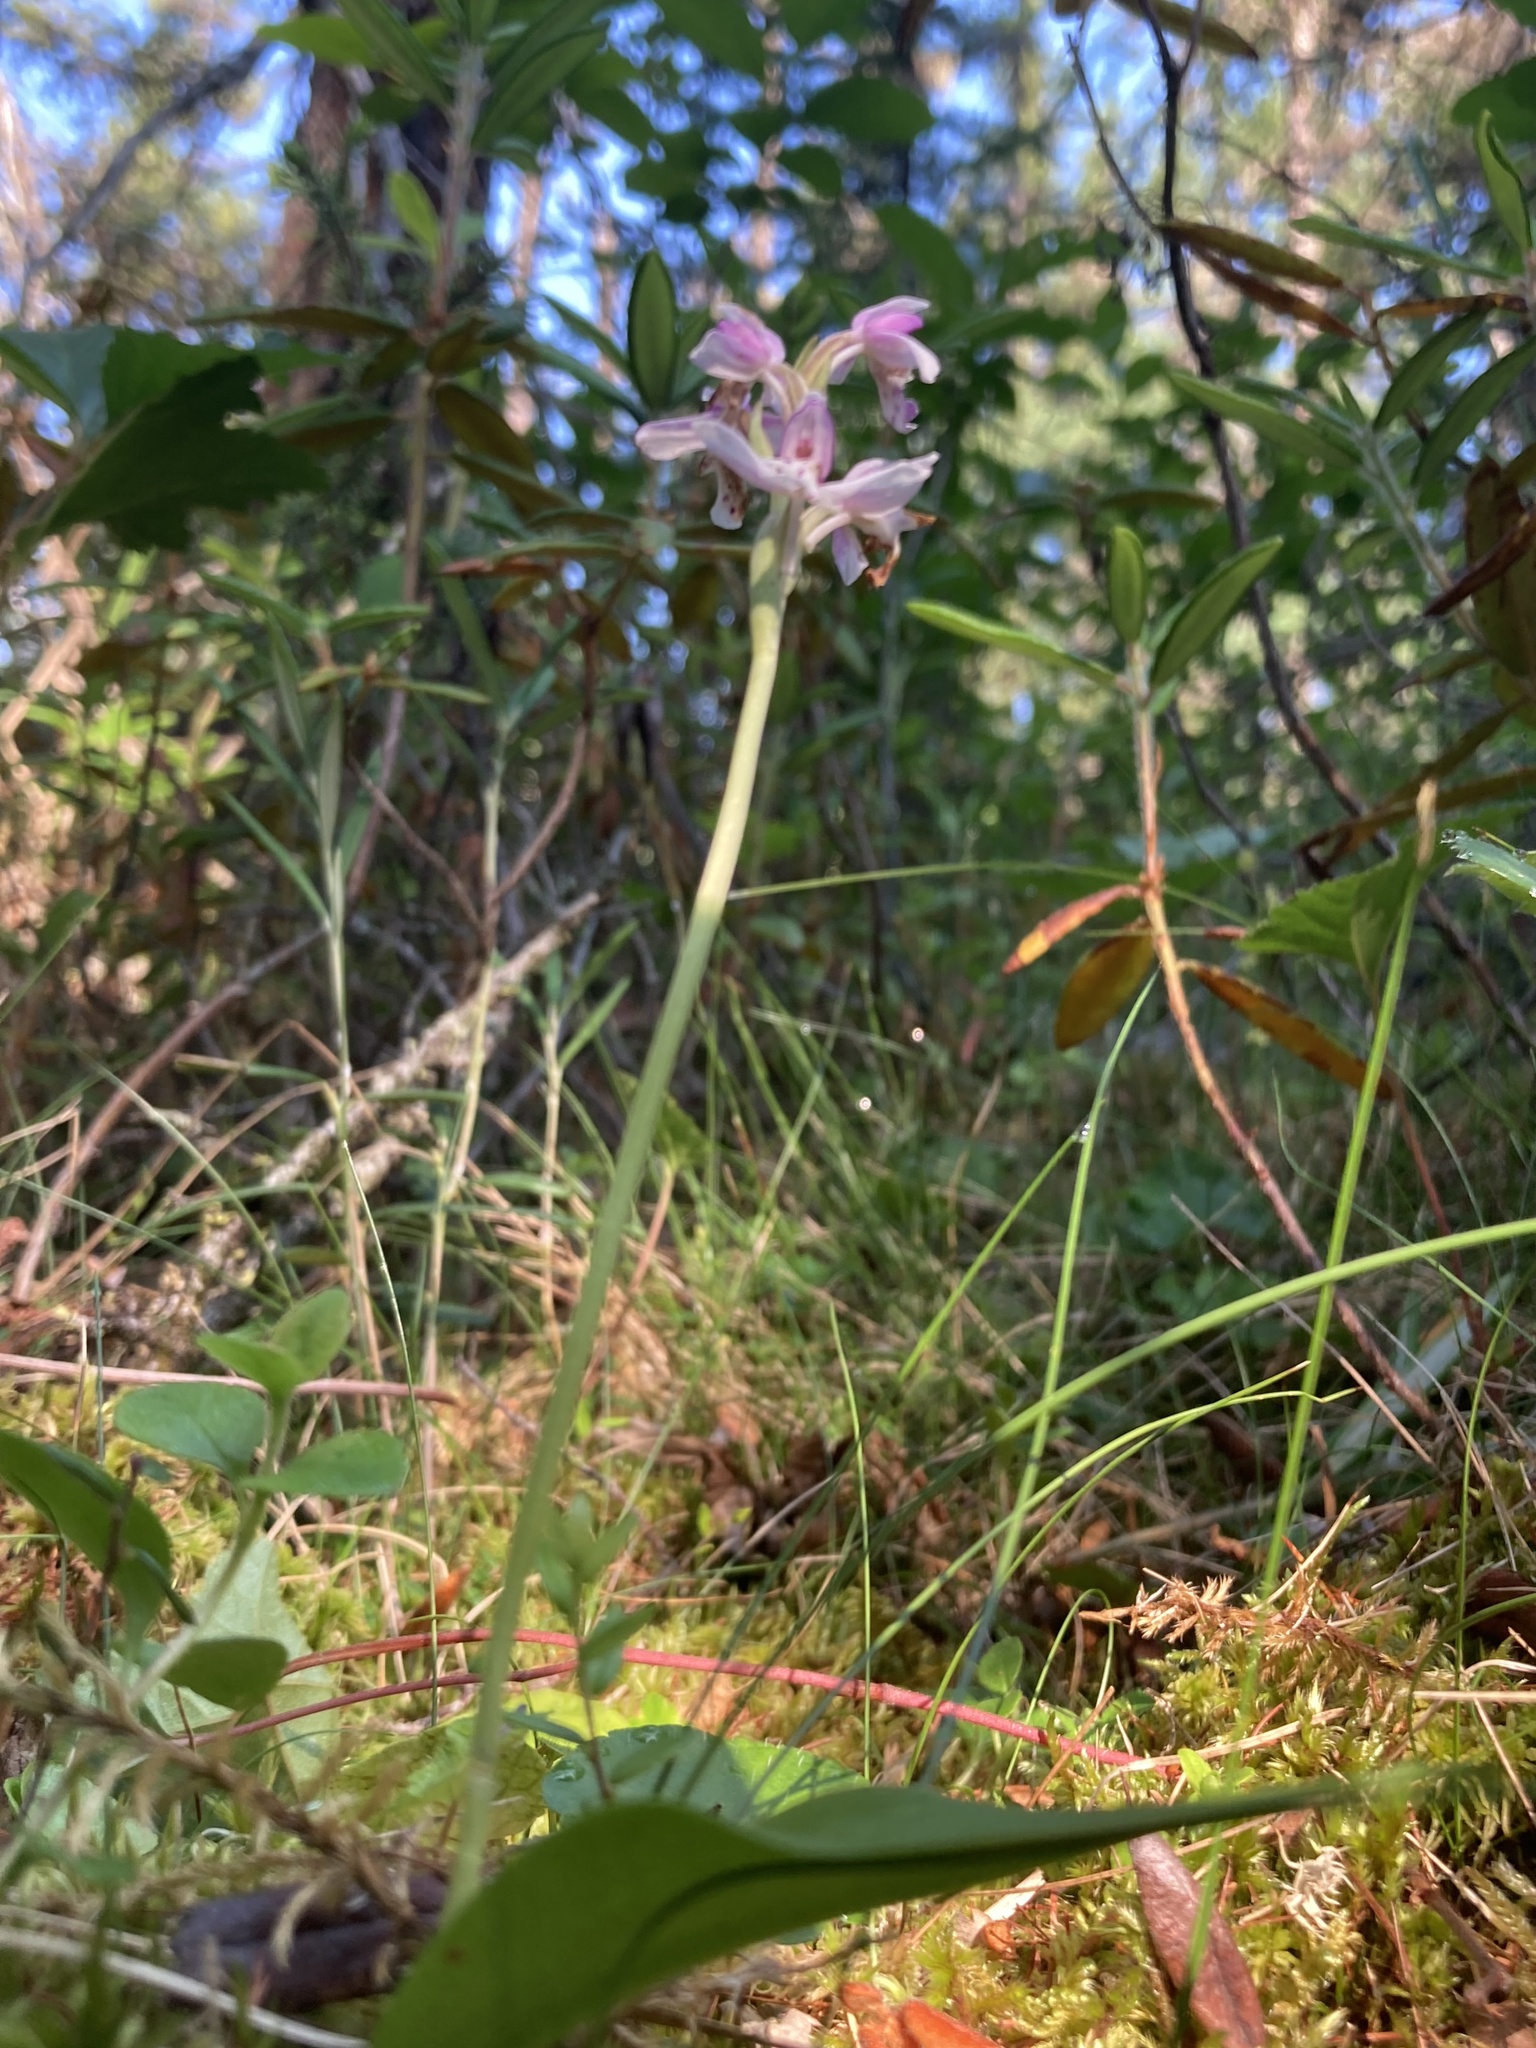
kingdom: Plantae
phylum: Tracheophyta
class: Liliopsida
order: Asparagales
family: Orchidaceae
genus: Galearis
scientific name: Galearis rotundifolia
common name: One-leaved orchis
